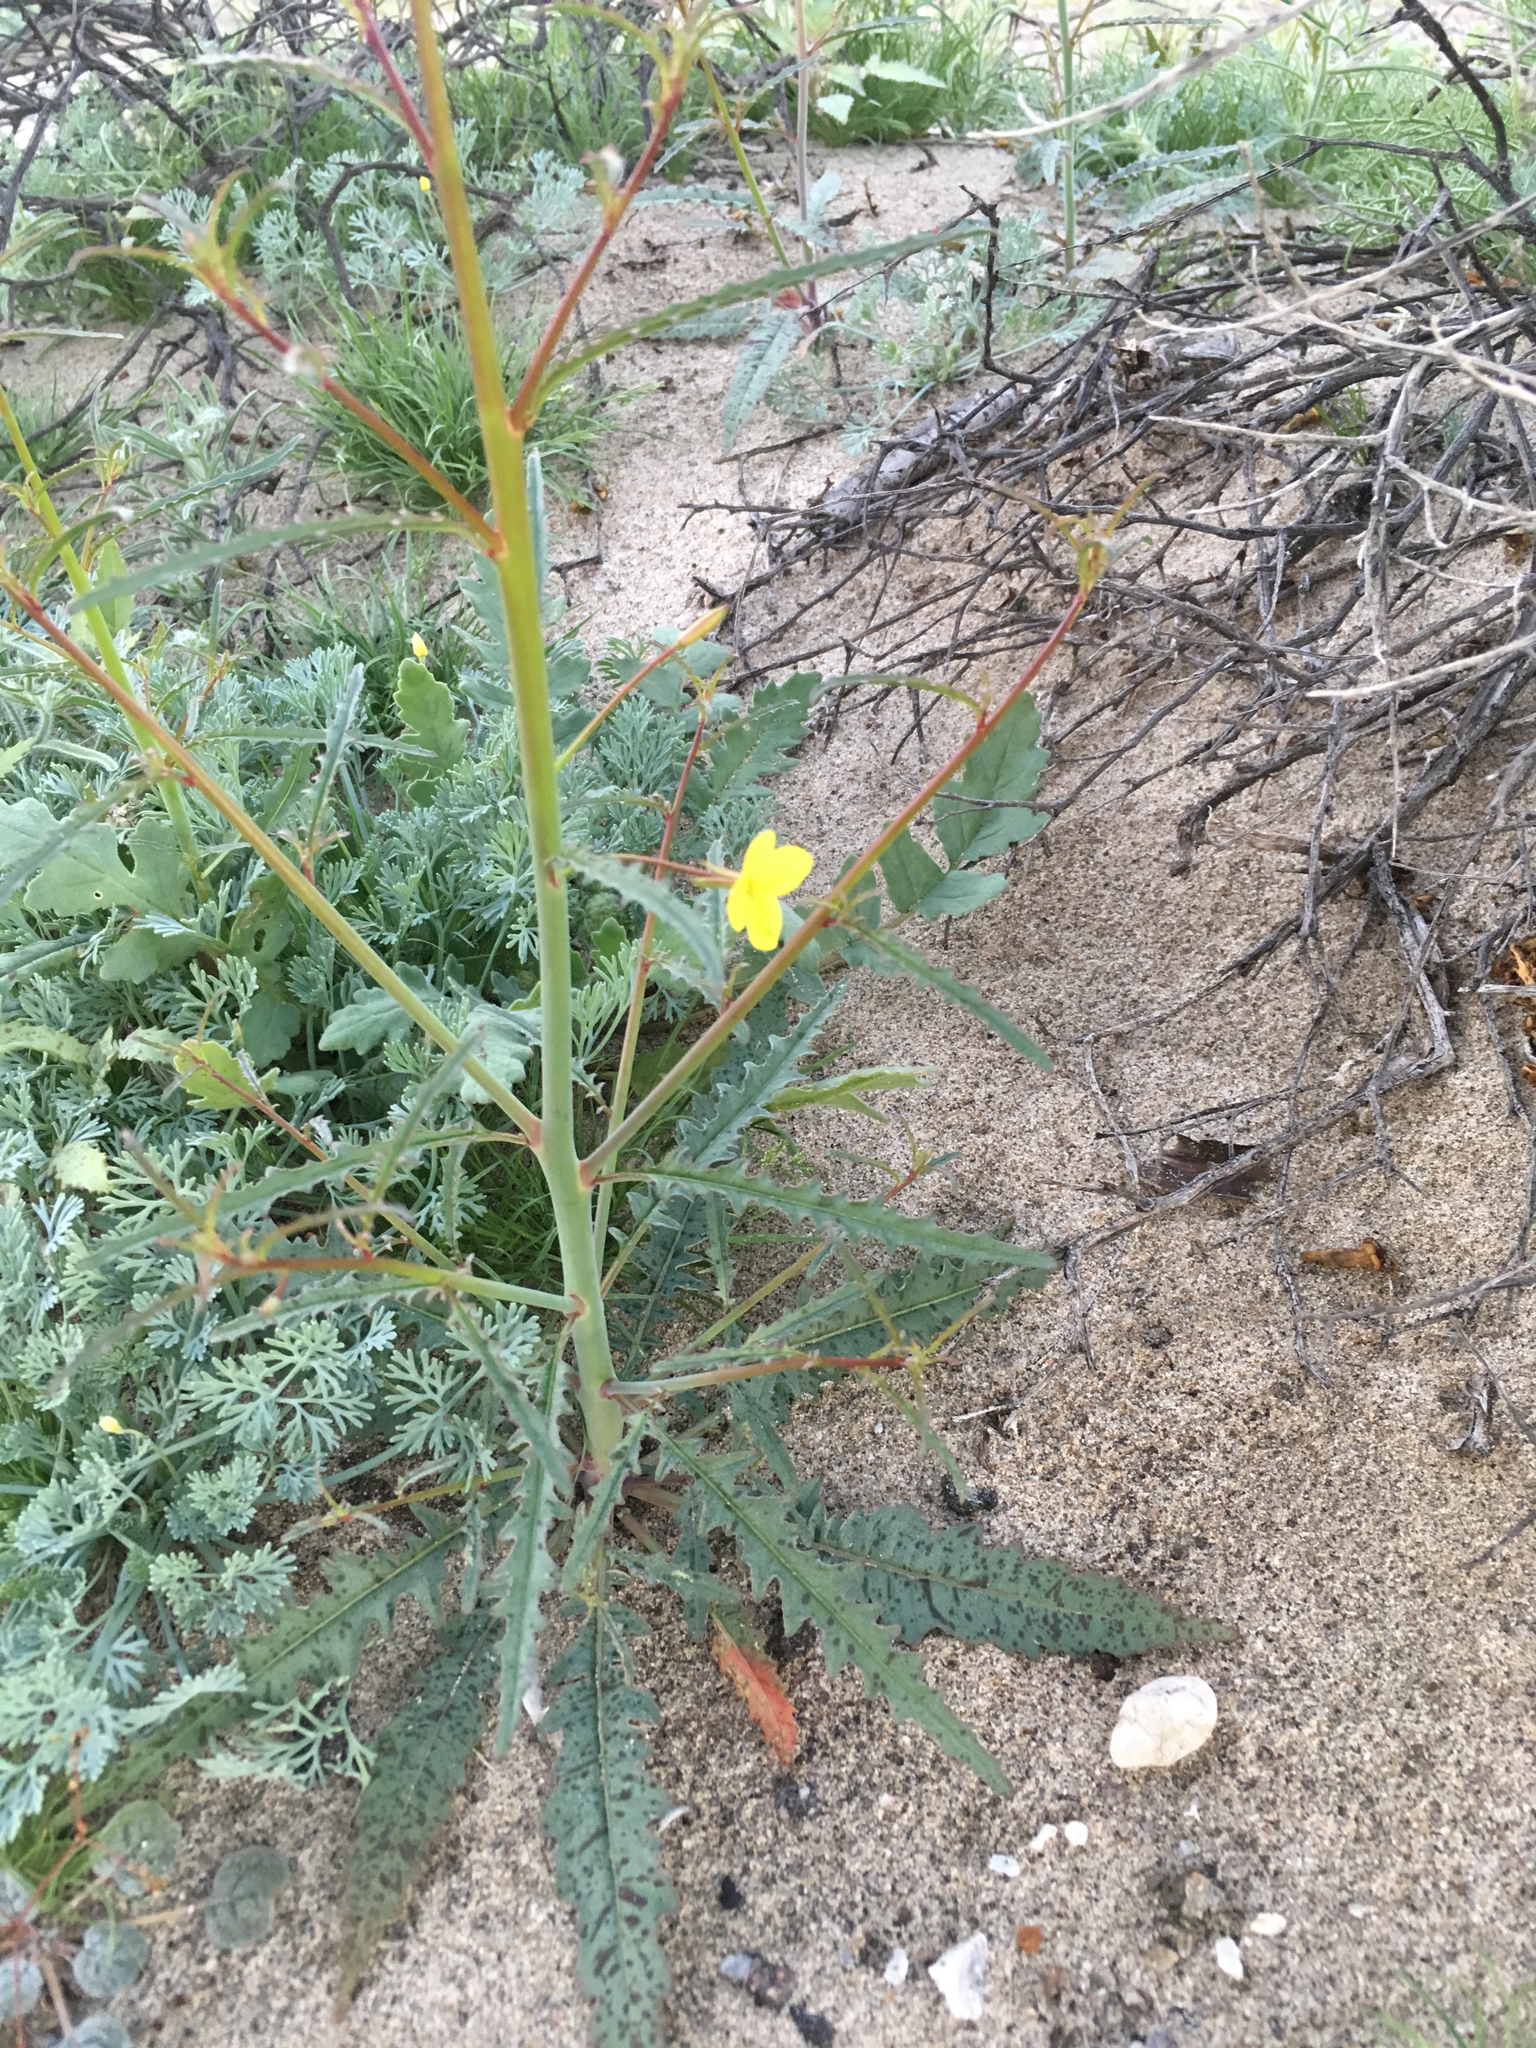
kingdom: Plantae
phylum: Tracheophyta
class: Magnoliopsida
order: Myrtales
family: Onagraceae
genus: Eulobus
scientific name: Eulobus californicus
